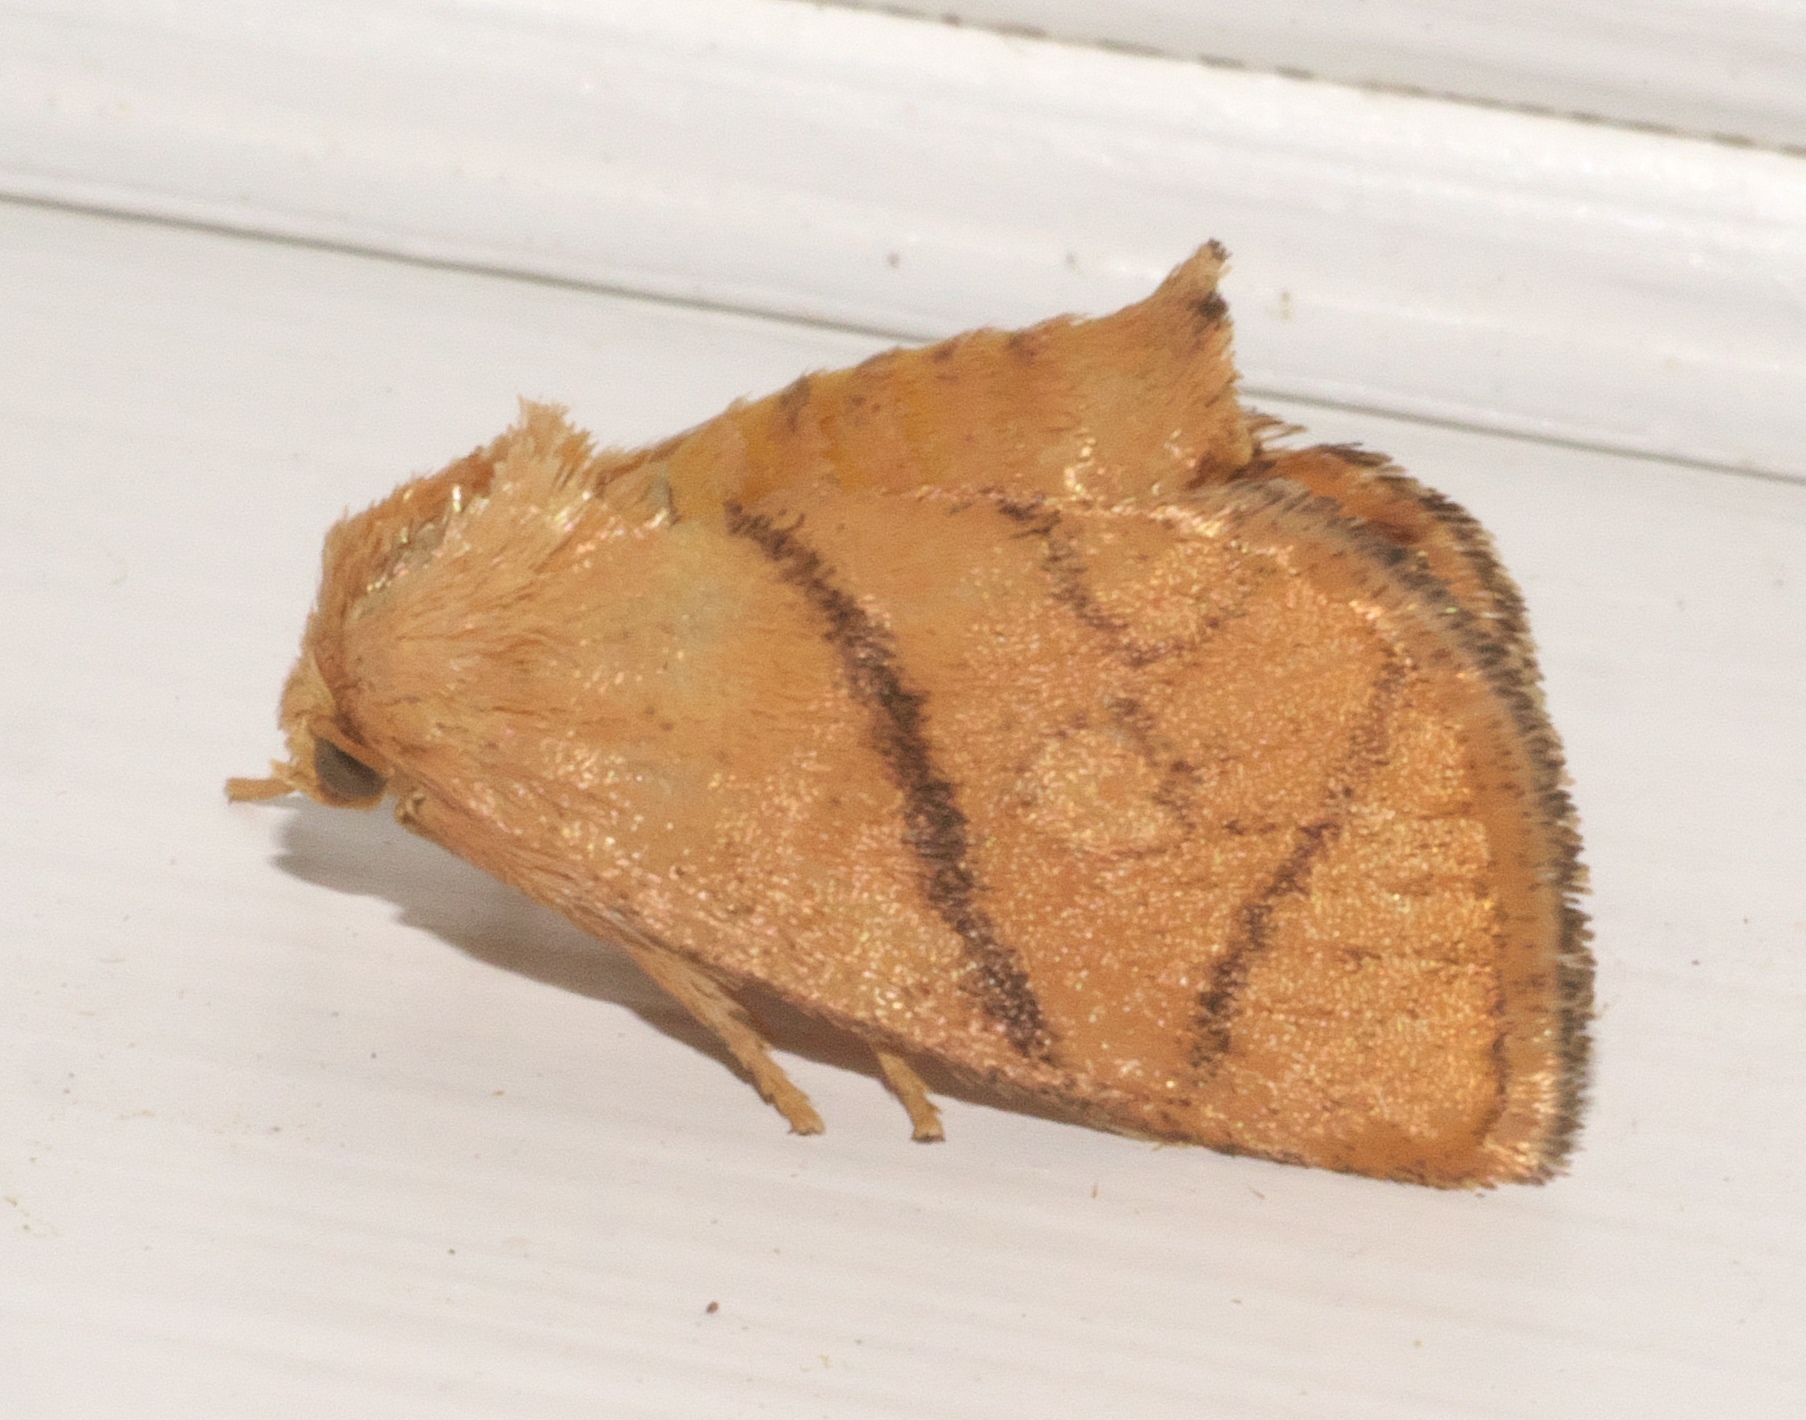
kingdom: Animalia
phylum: Arthropoda
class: Insecta
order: Lepidoptera
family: Limacodidae
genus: Apoda
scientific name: Apoda y-inversa
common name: Yellow-collared slug moth
